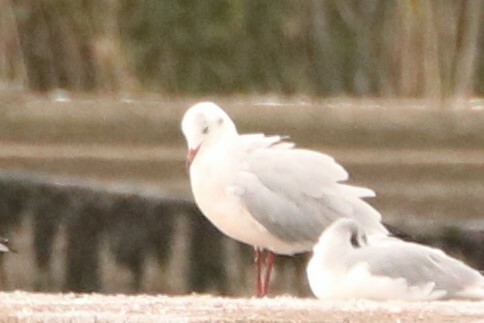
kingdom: Animalia
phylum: Chordata
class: Aves
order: Charadriiformes
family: Laridae
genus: Chroicocephalus
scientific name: Chroicocephalus ridibundus
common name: Black-headed gull
